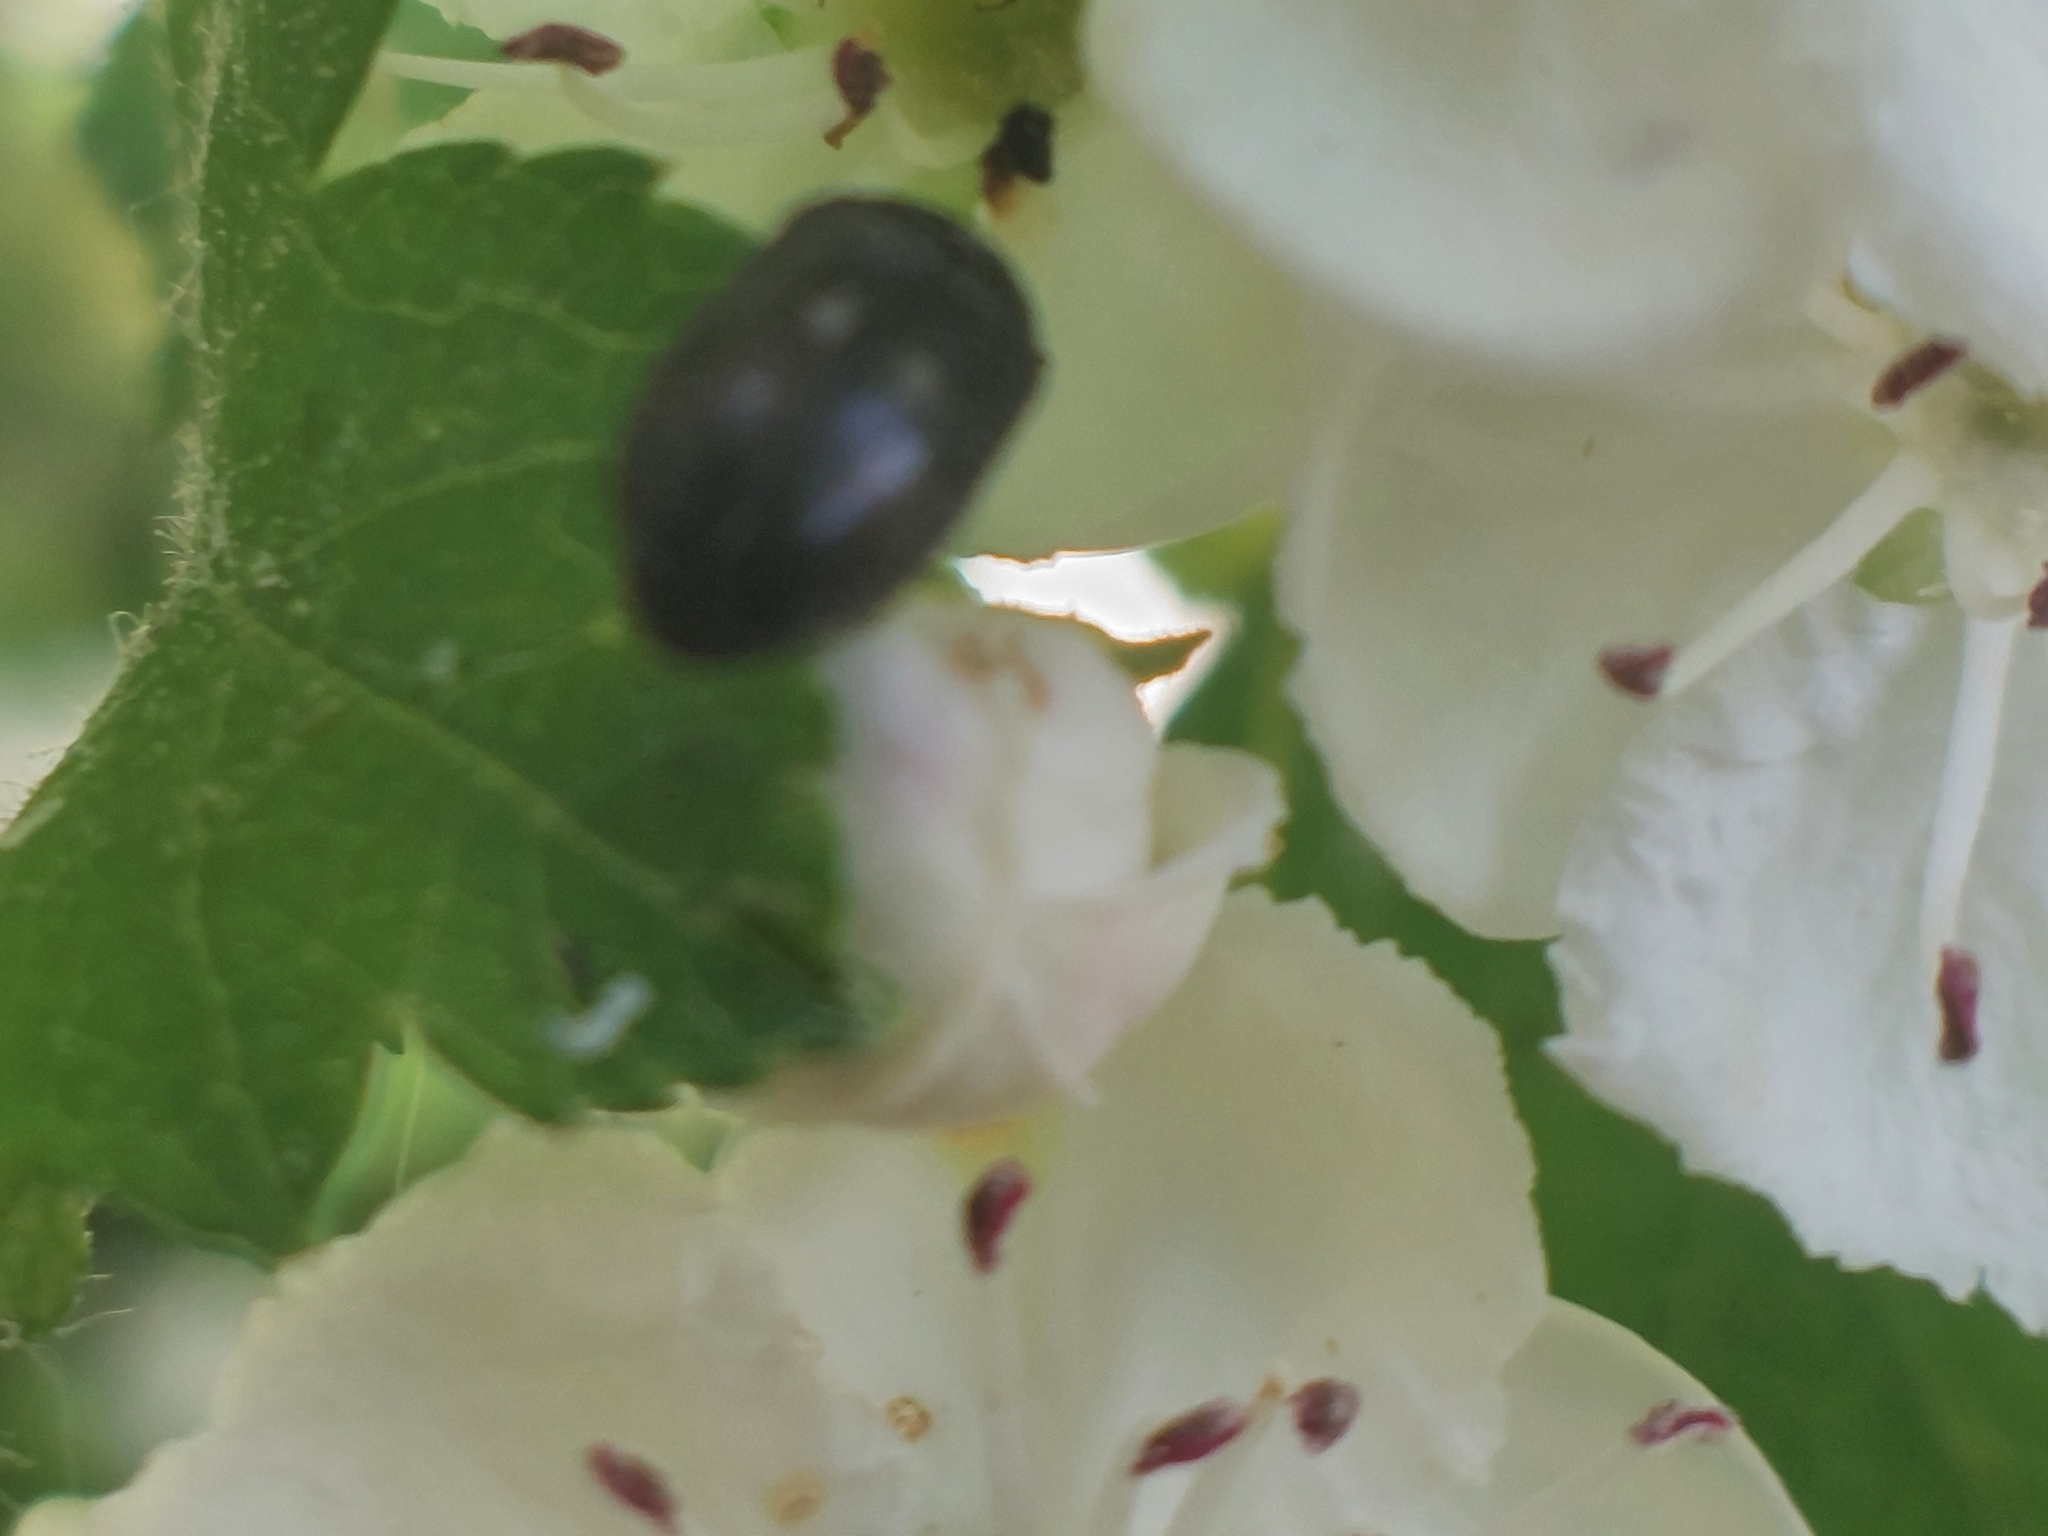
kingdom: Animalia
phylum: Arthropoda
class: Insecta
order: Coleoptera
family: Dermestidae
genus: Attagenus
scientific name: Attagenus pellio
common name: Two-spotted carpet beetle
